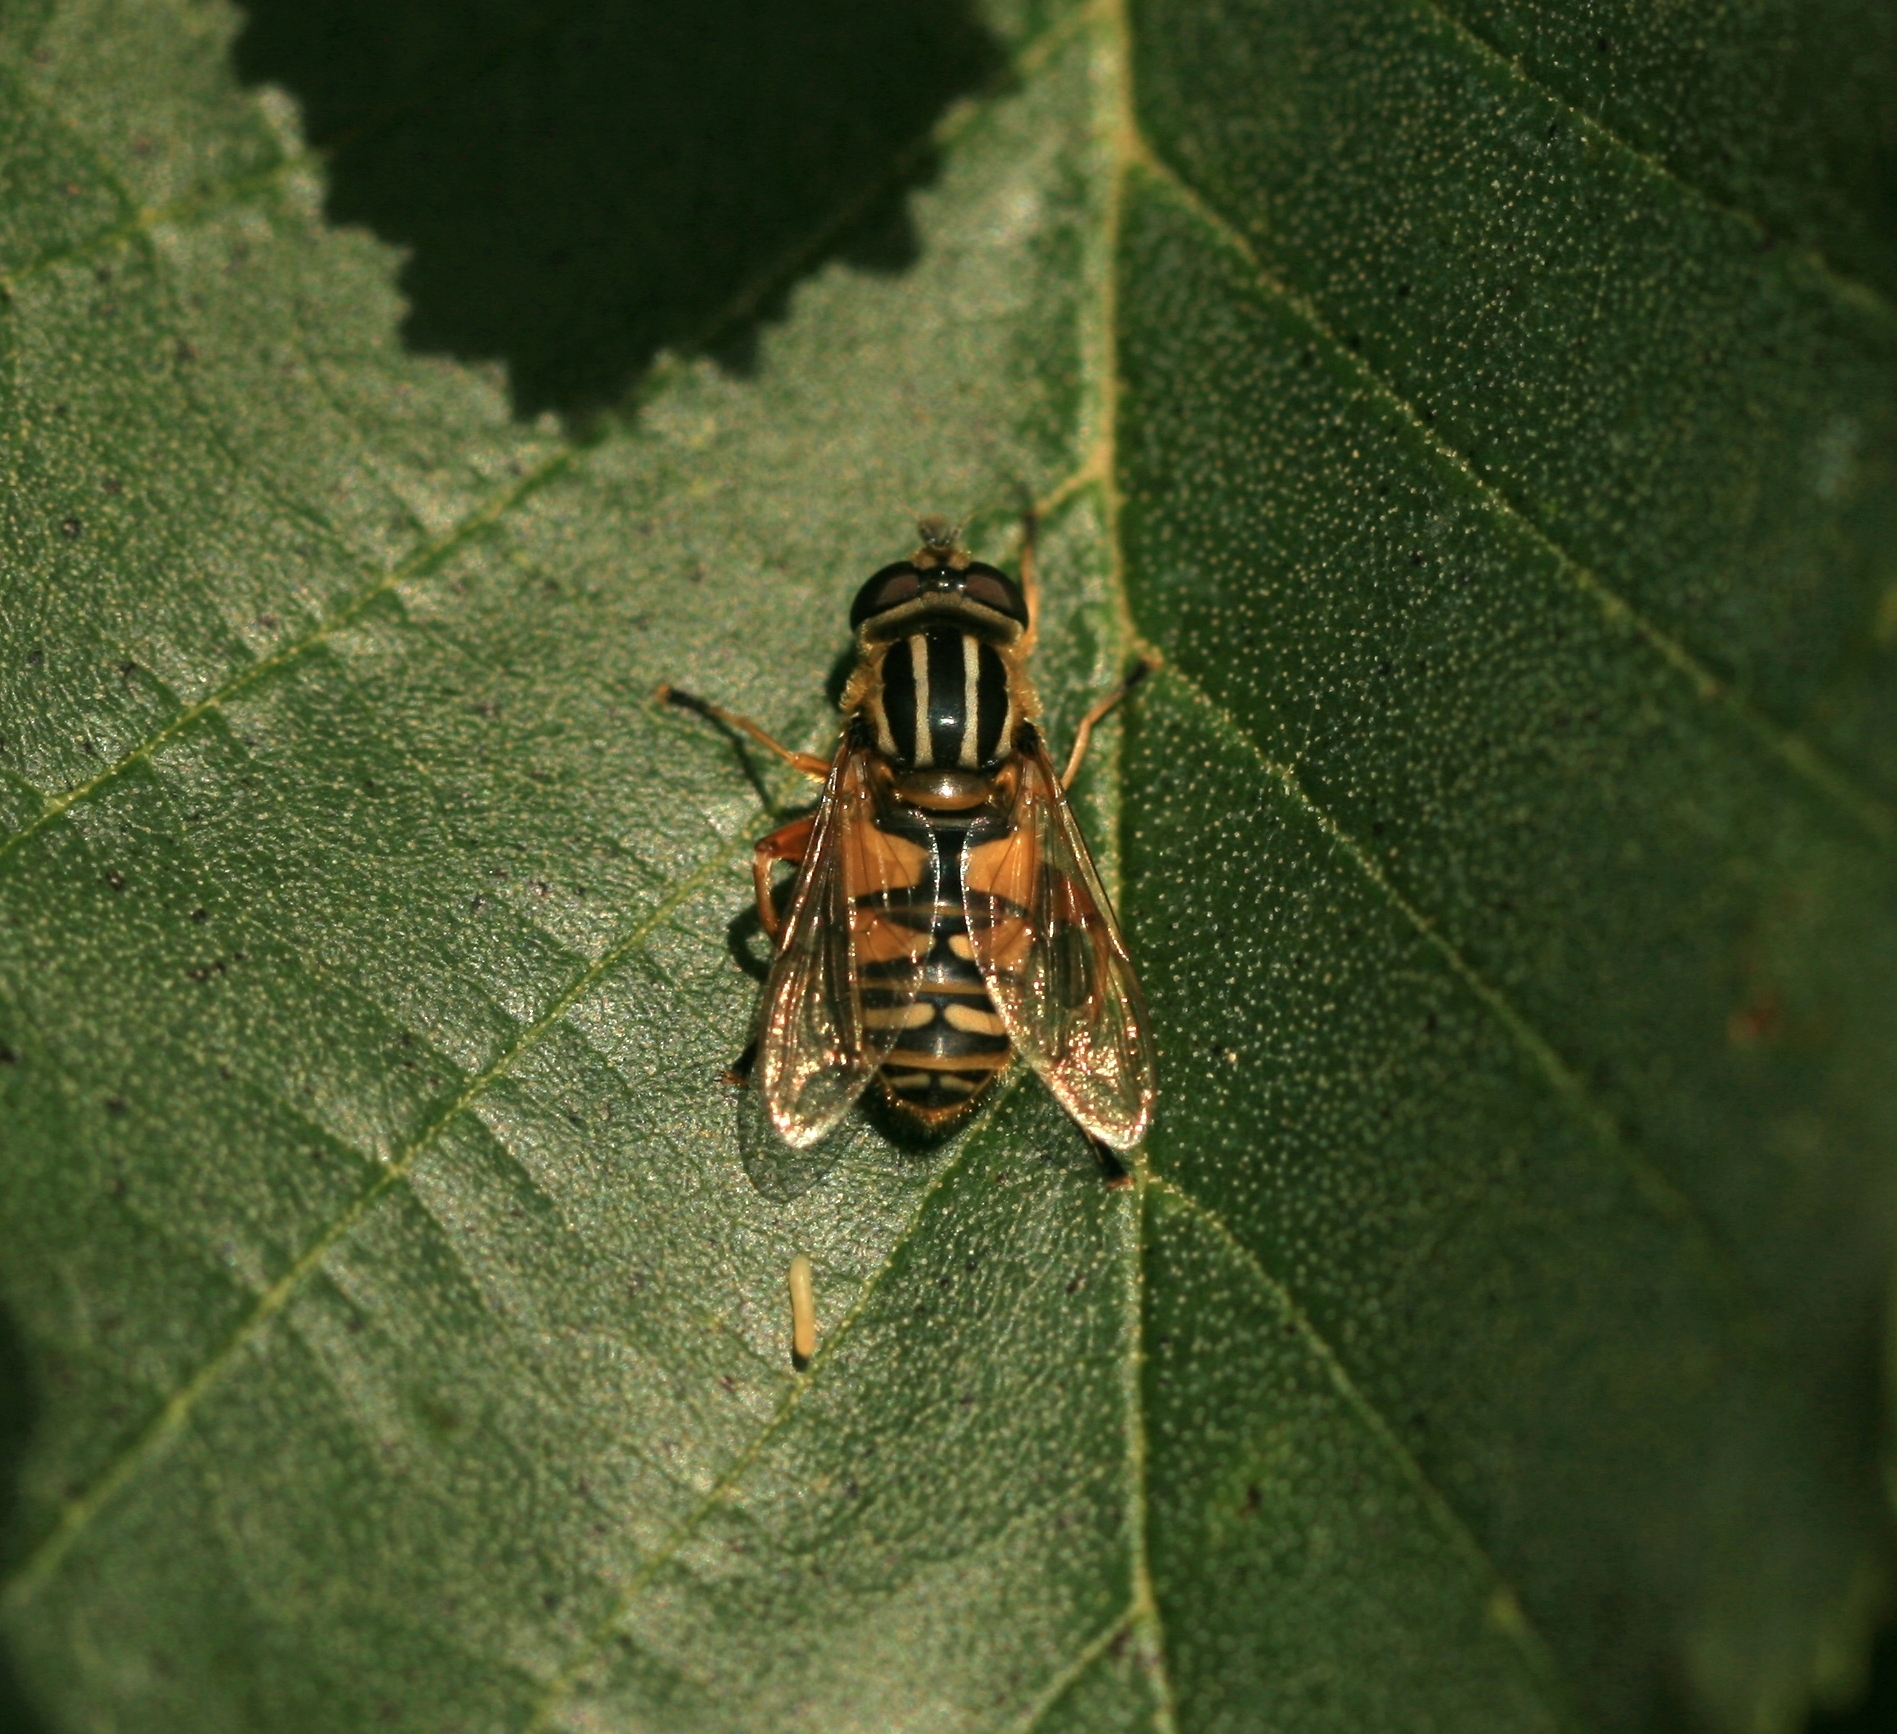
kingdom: Animalia
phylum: Arthropoda
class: Insecta
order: Diptera
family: Syrphidae
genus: Helophilus
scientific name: Helophilus pendulus
